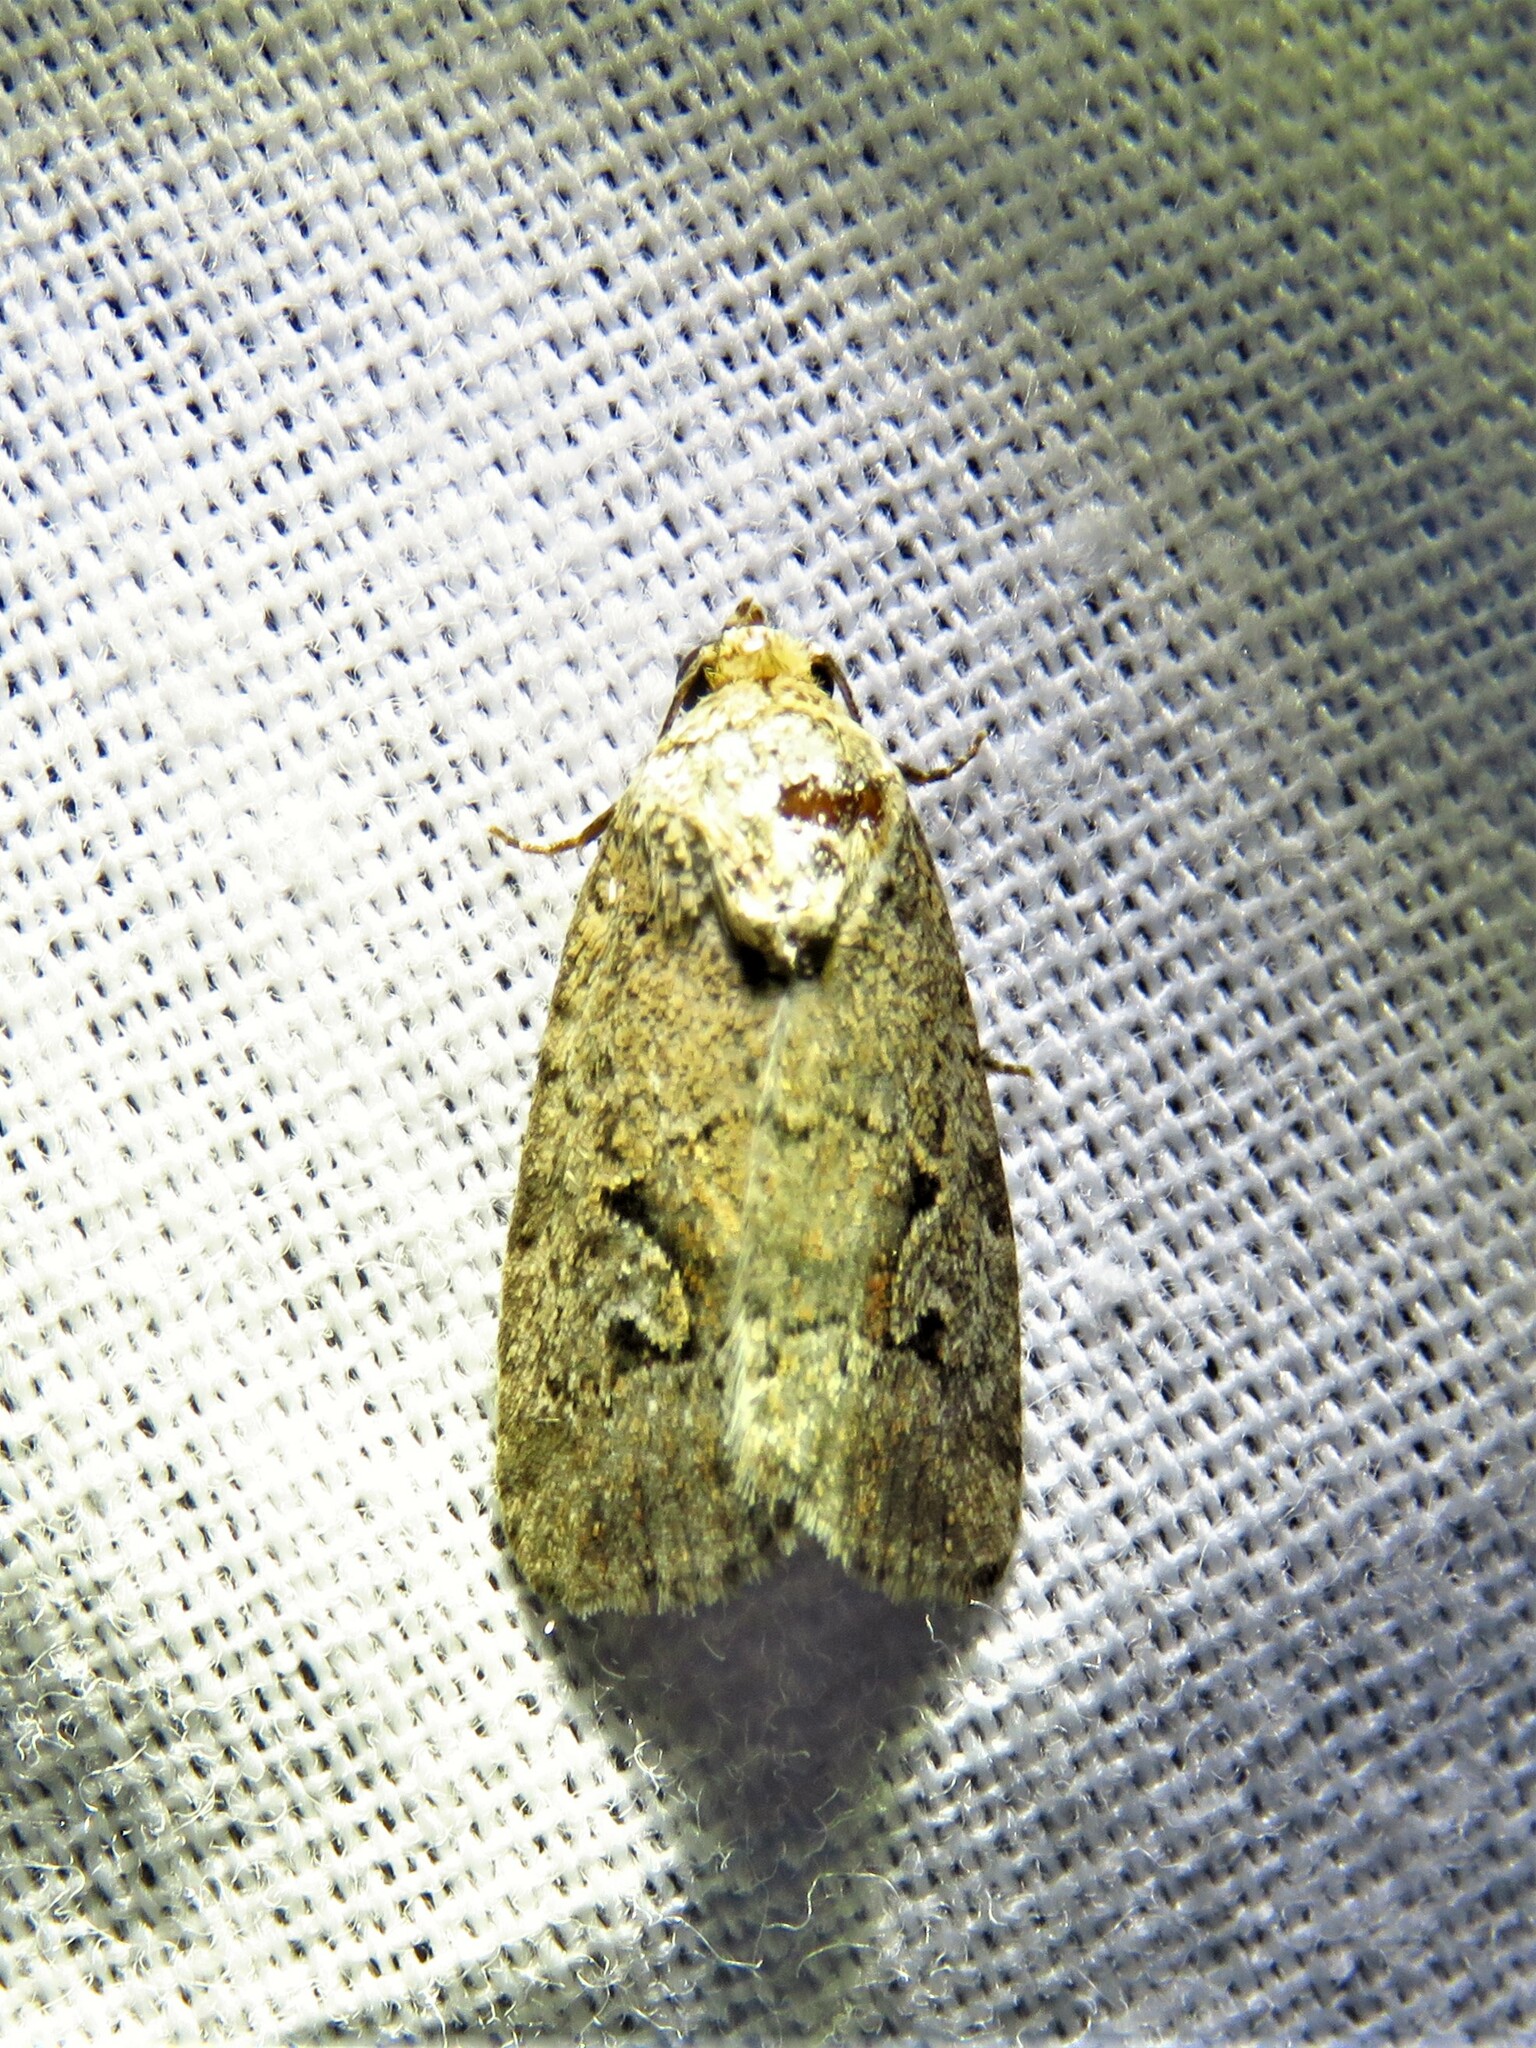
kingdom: Animalia
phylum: Arthropoda
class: Insecta
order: Lepidoptera
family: Noctuidae
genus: Elaphria
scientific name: Elaphria festivoides
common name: Festive midget
